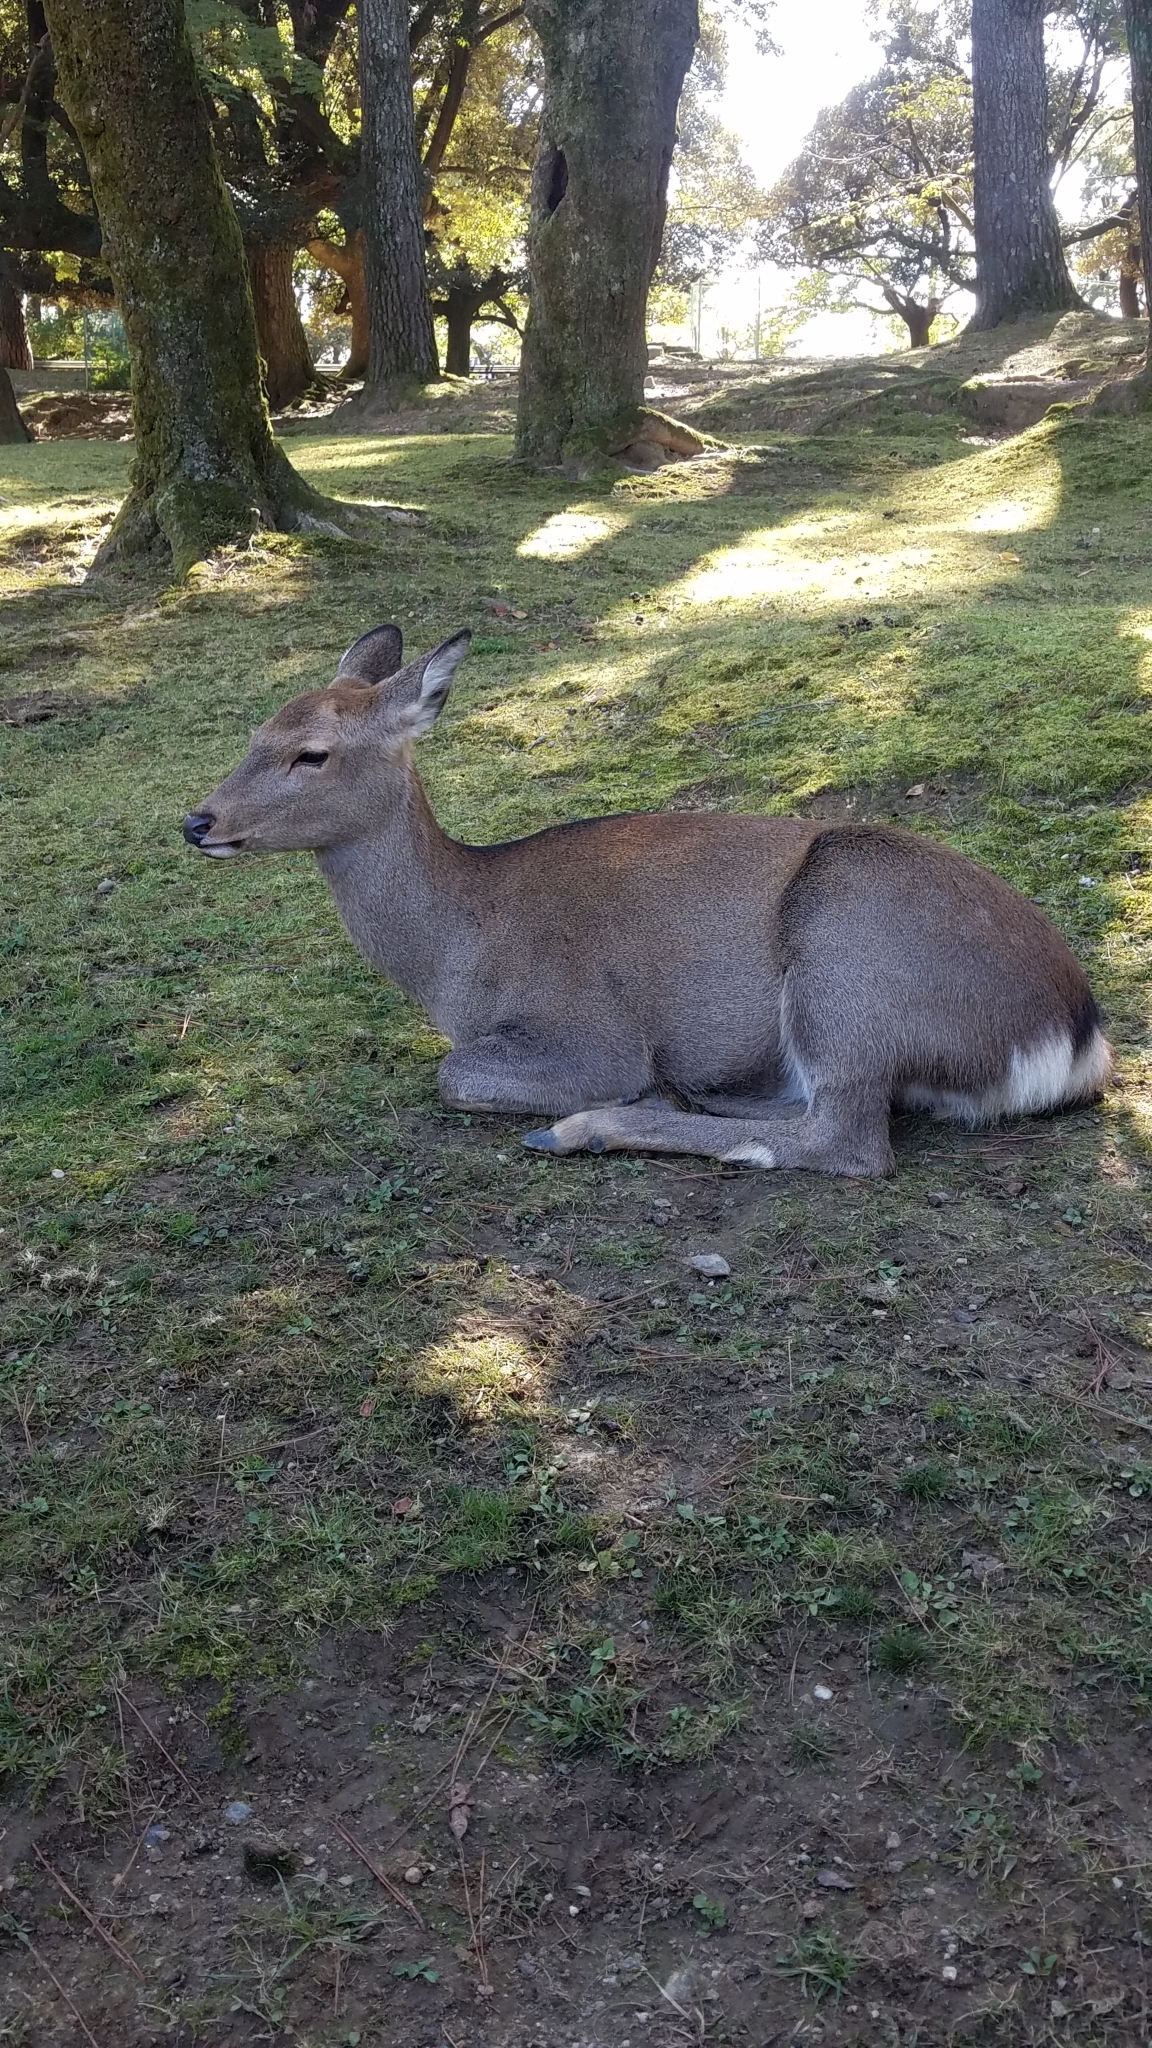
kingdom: Animalia
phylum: Chordata
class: Mammalia
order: Artiodactyla
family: Cervidae
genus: Cervus
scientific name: Cervus nippon
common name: Sika deer
